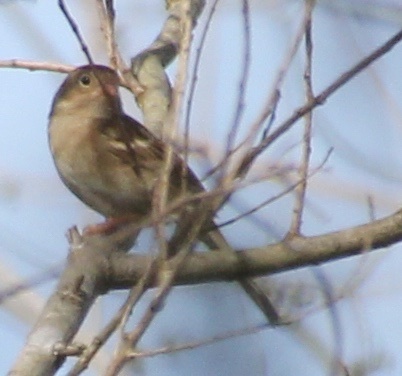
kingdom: Animalia
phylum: Chordata
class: Aves
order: Passeriformes
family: Passerellidae
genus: Spizella
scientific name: Spizella pusilla
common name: Field sparrow
